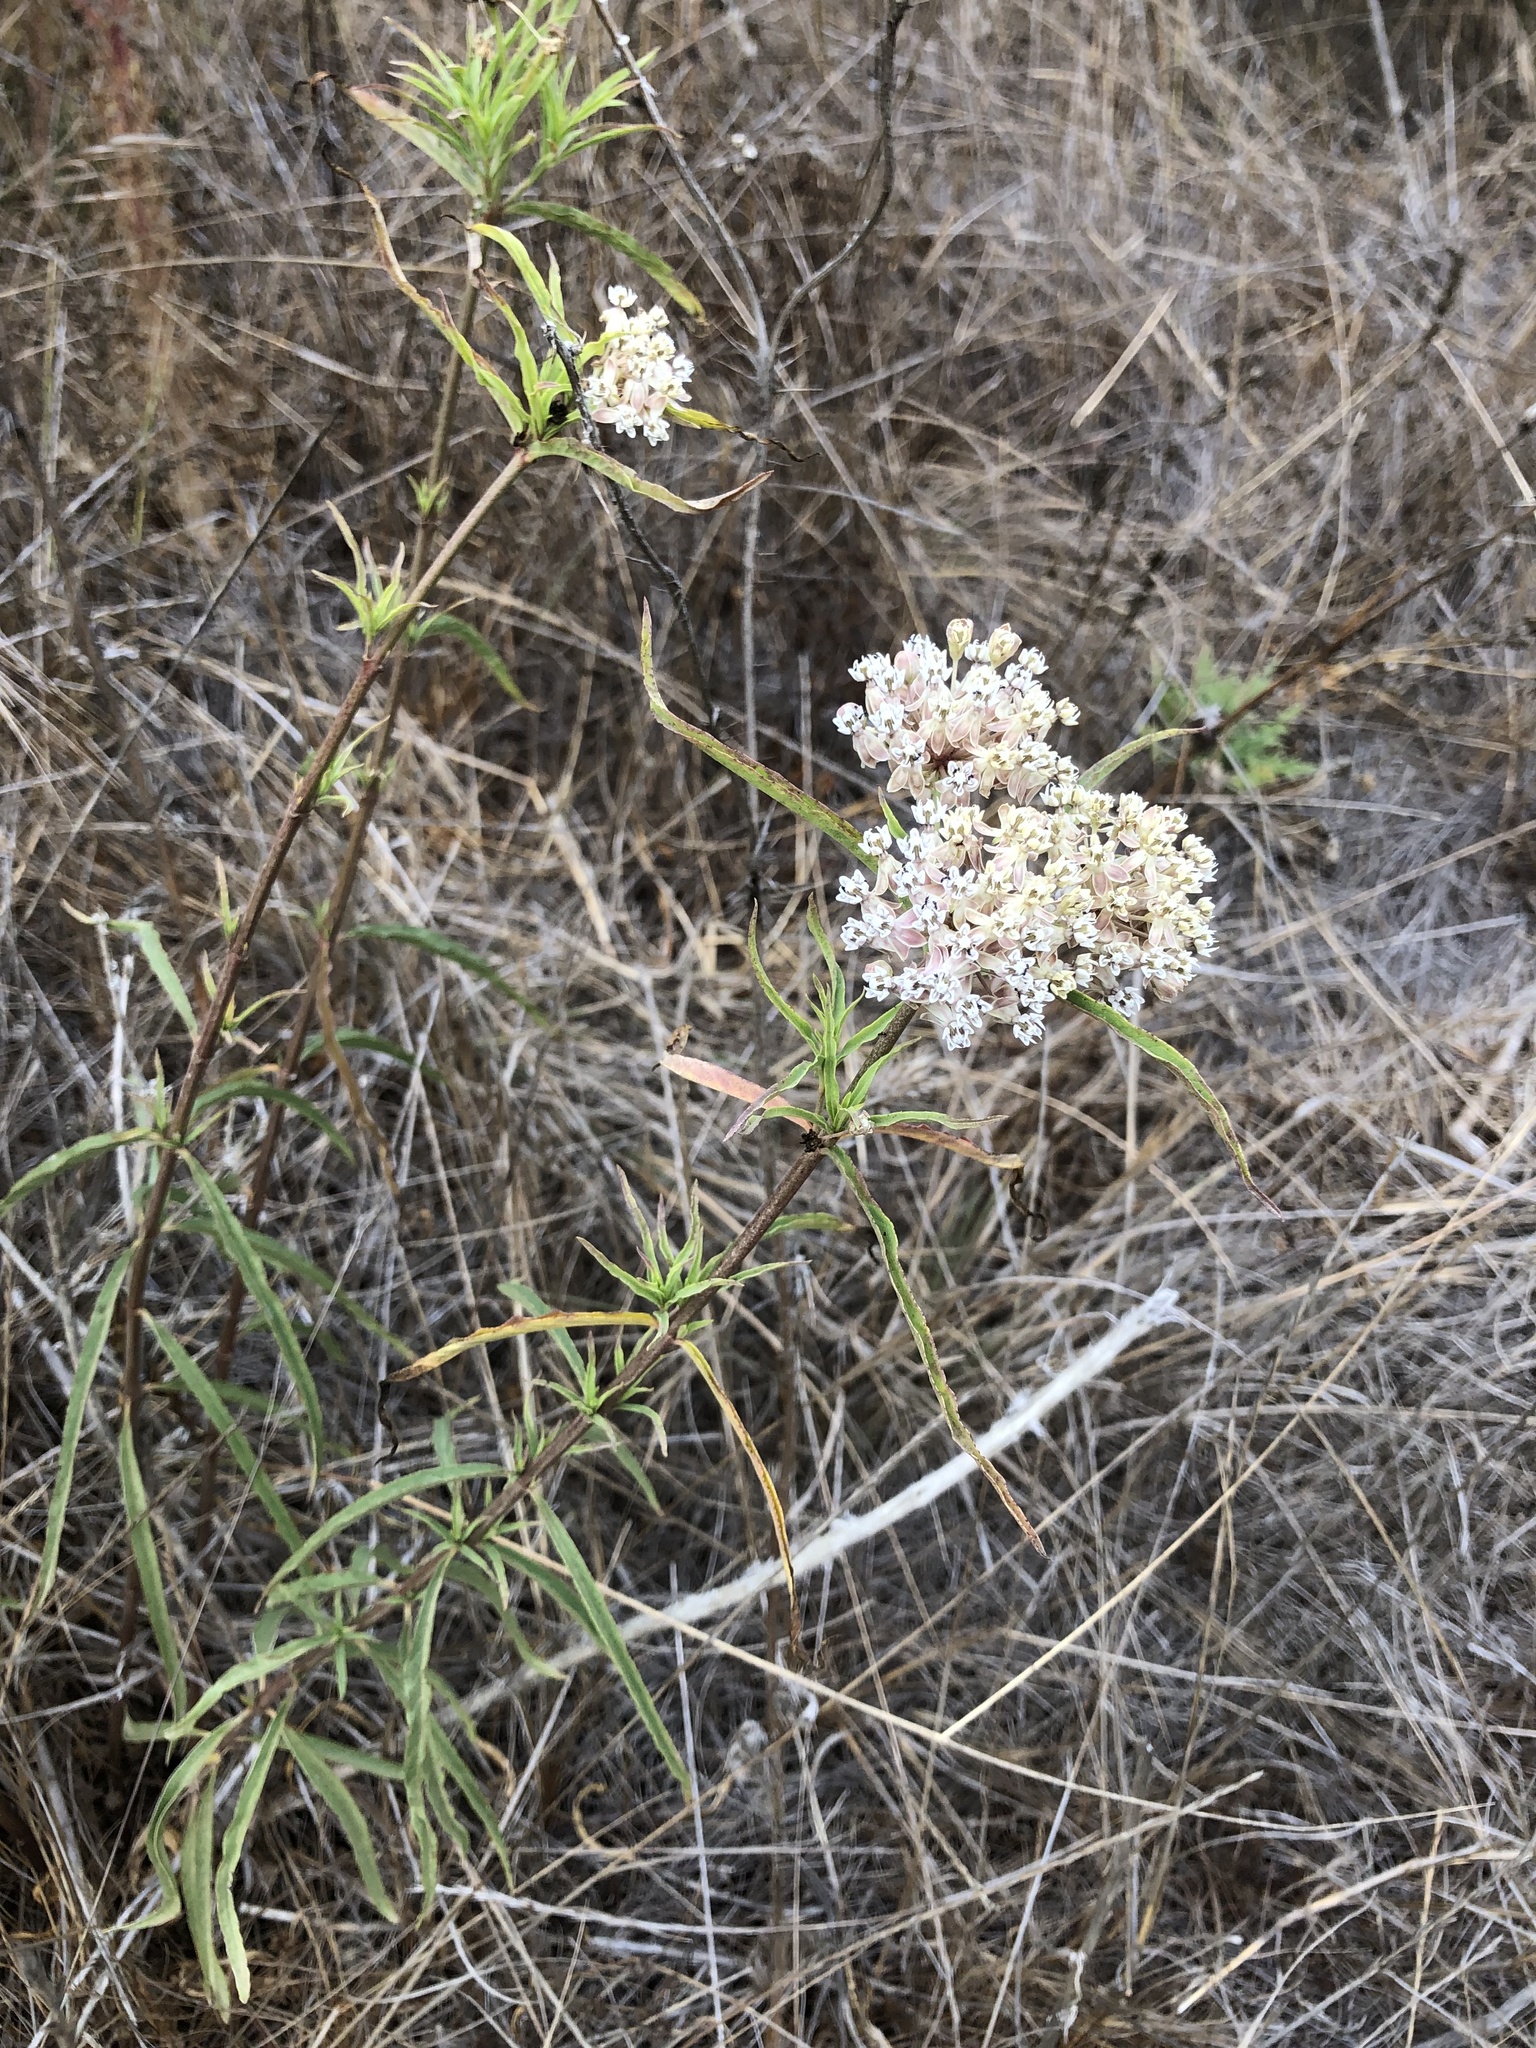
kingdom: Plantae
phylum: Tracheophyta
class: Magnoliopsida
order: Gentianales
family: Apocynaceae
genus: Asclepias
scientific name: Asclepias fascicularis
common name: Mexican milkweed
